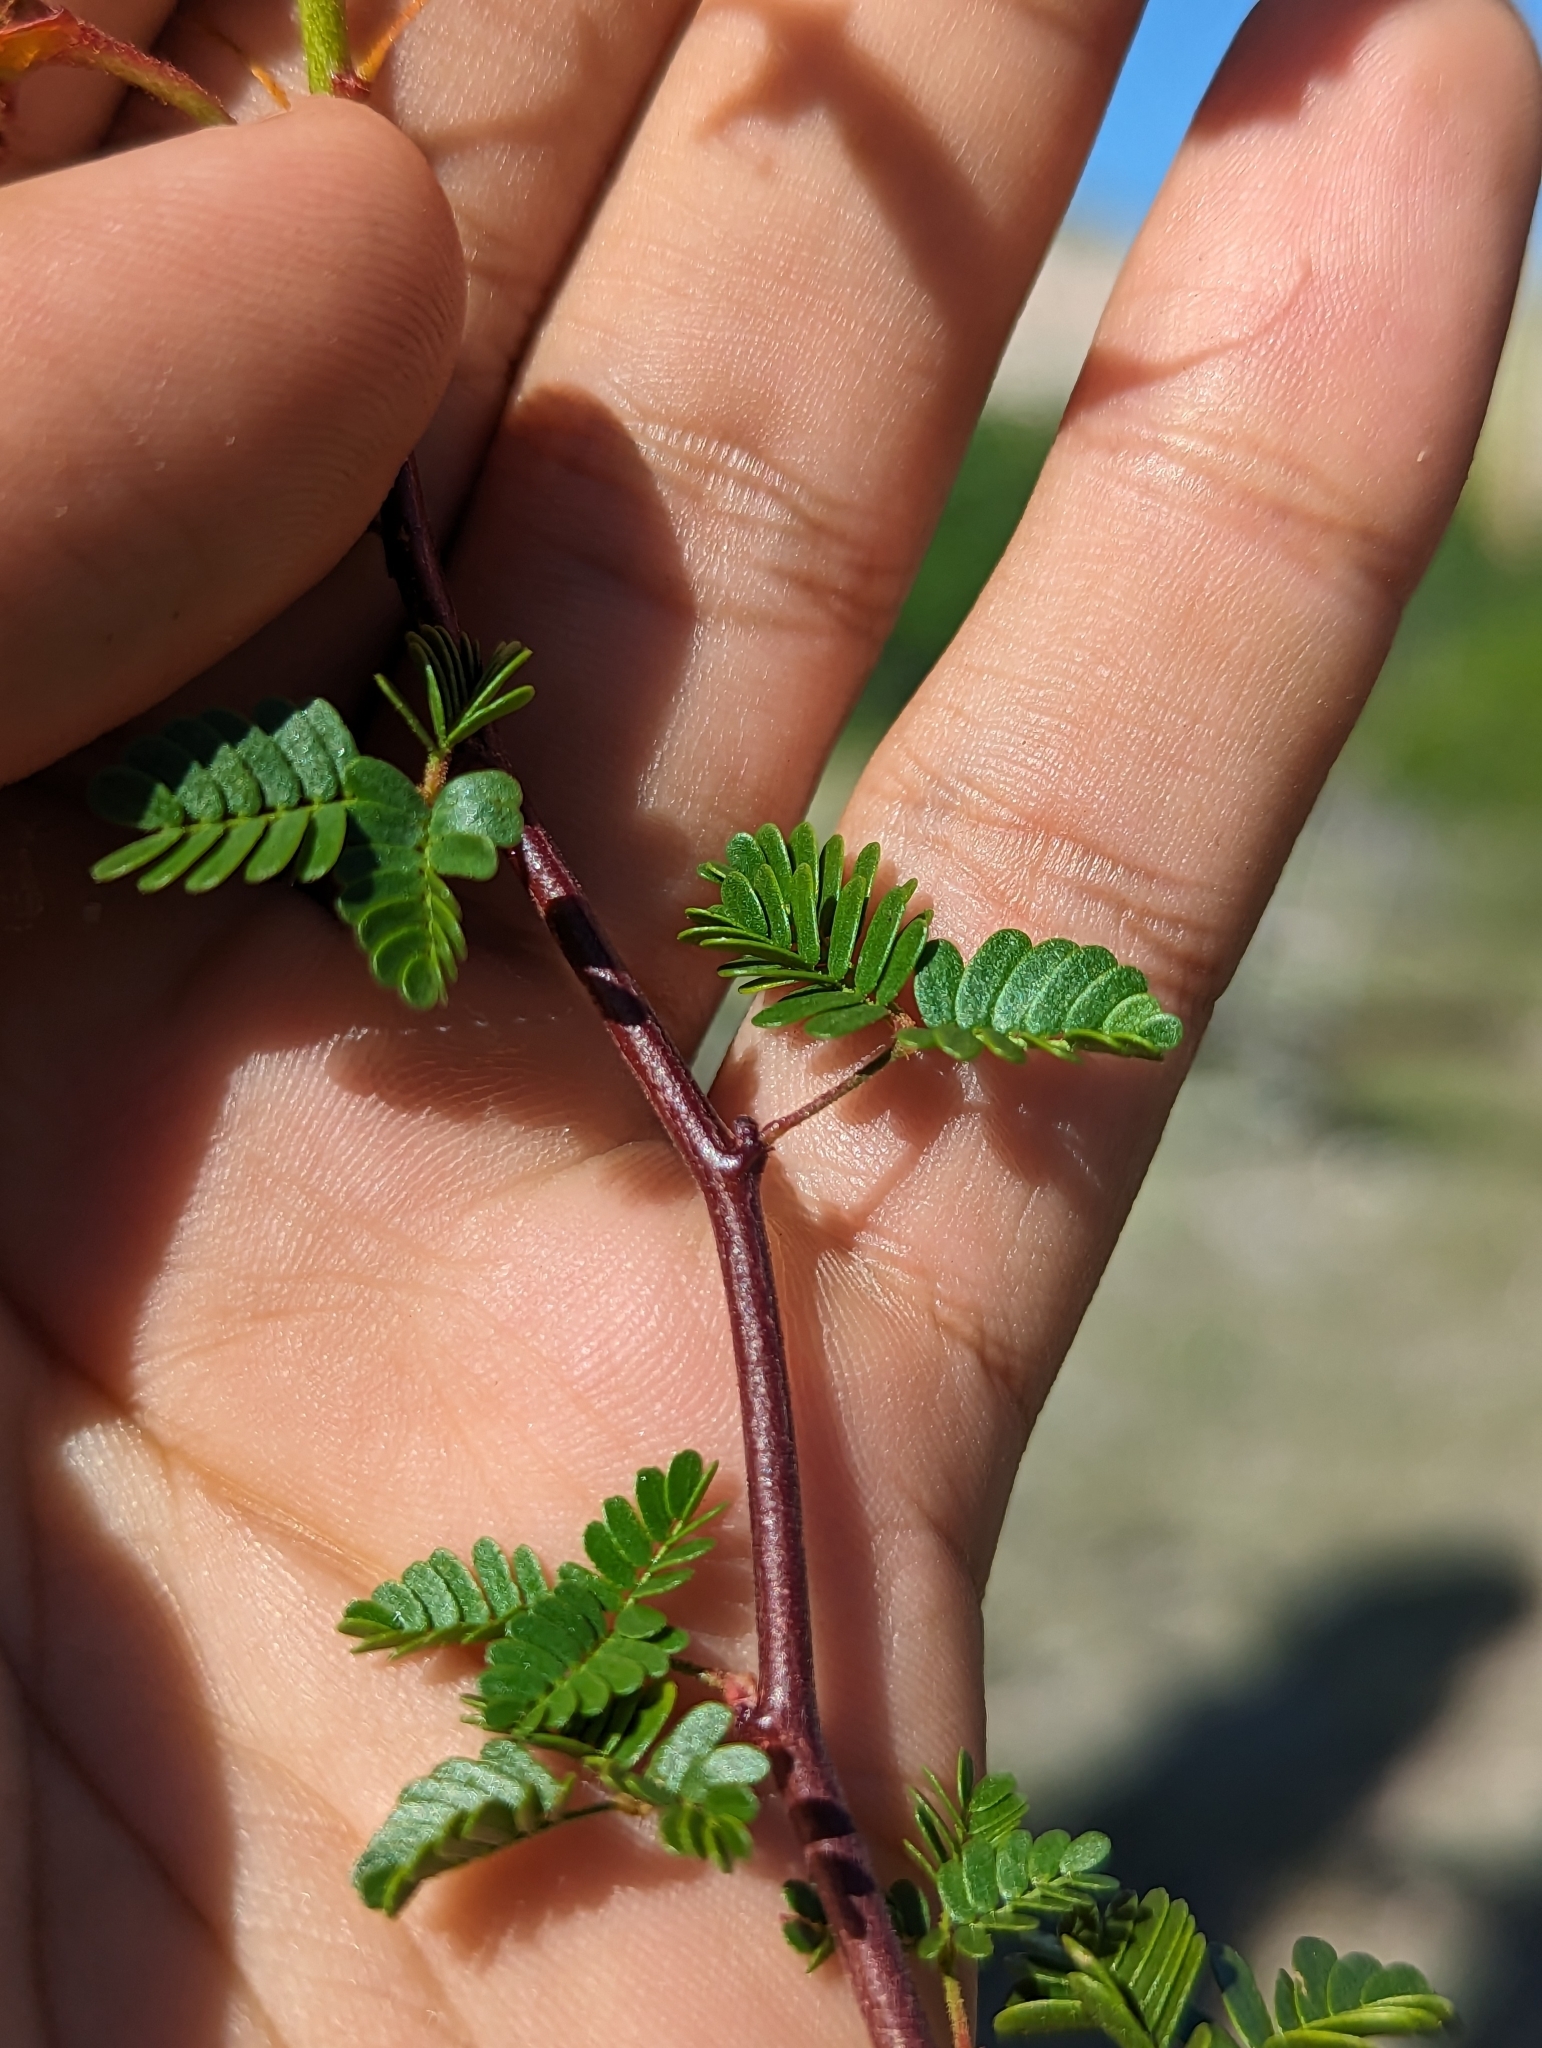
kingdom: Plantae
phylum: Tracheophyta
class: Magnoliopsida
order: Fabales
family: Fabaceae
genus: Erythrostemon
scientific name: Erythrostemon placidus
